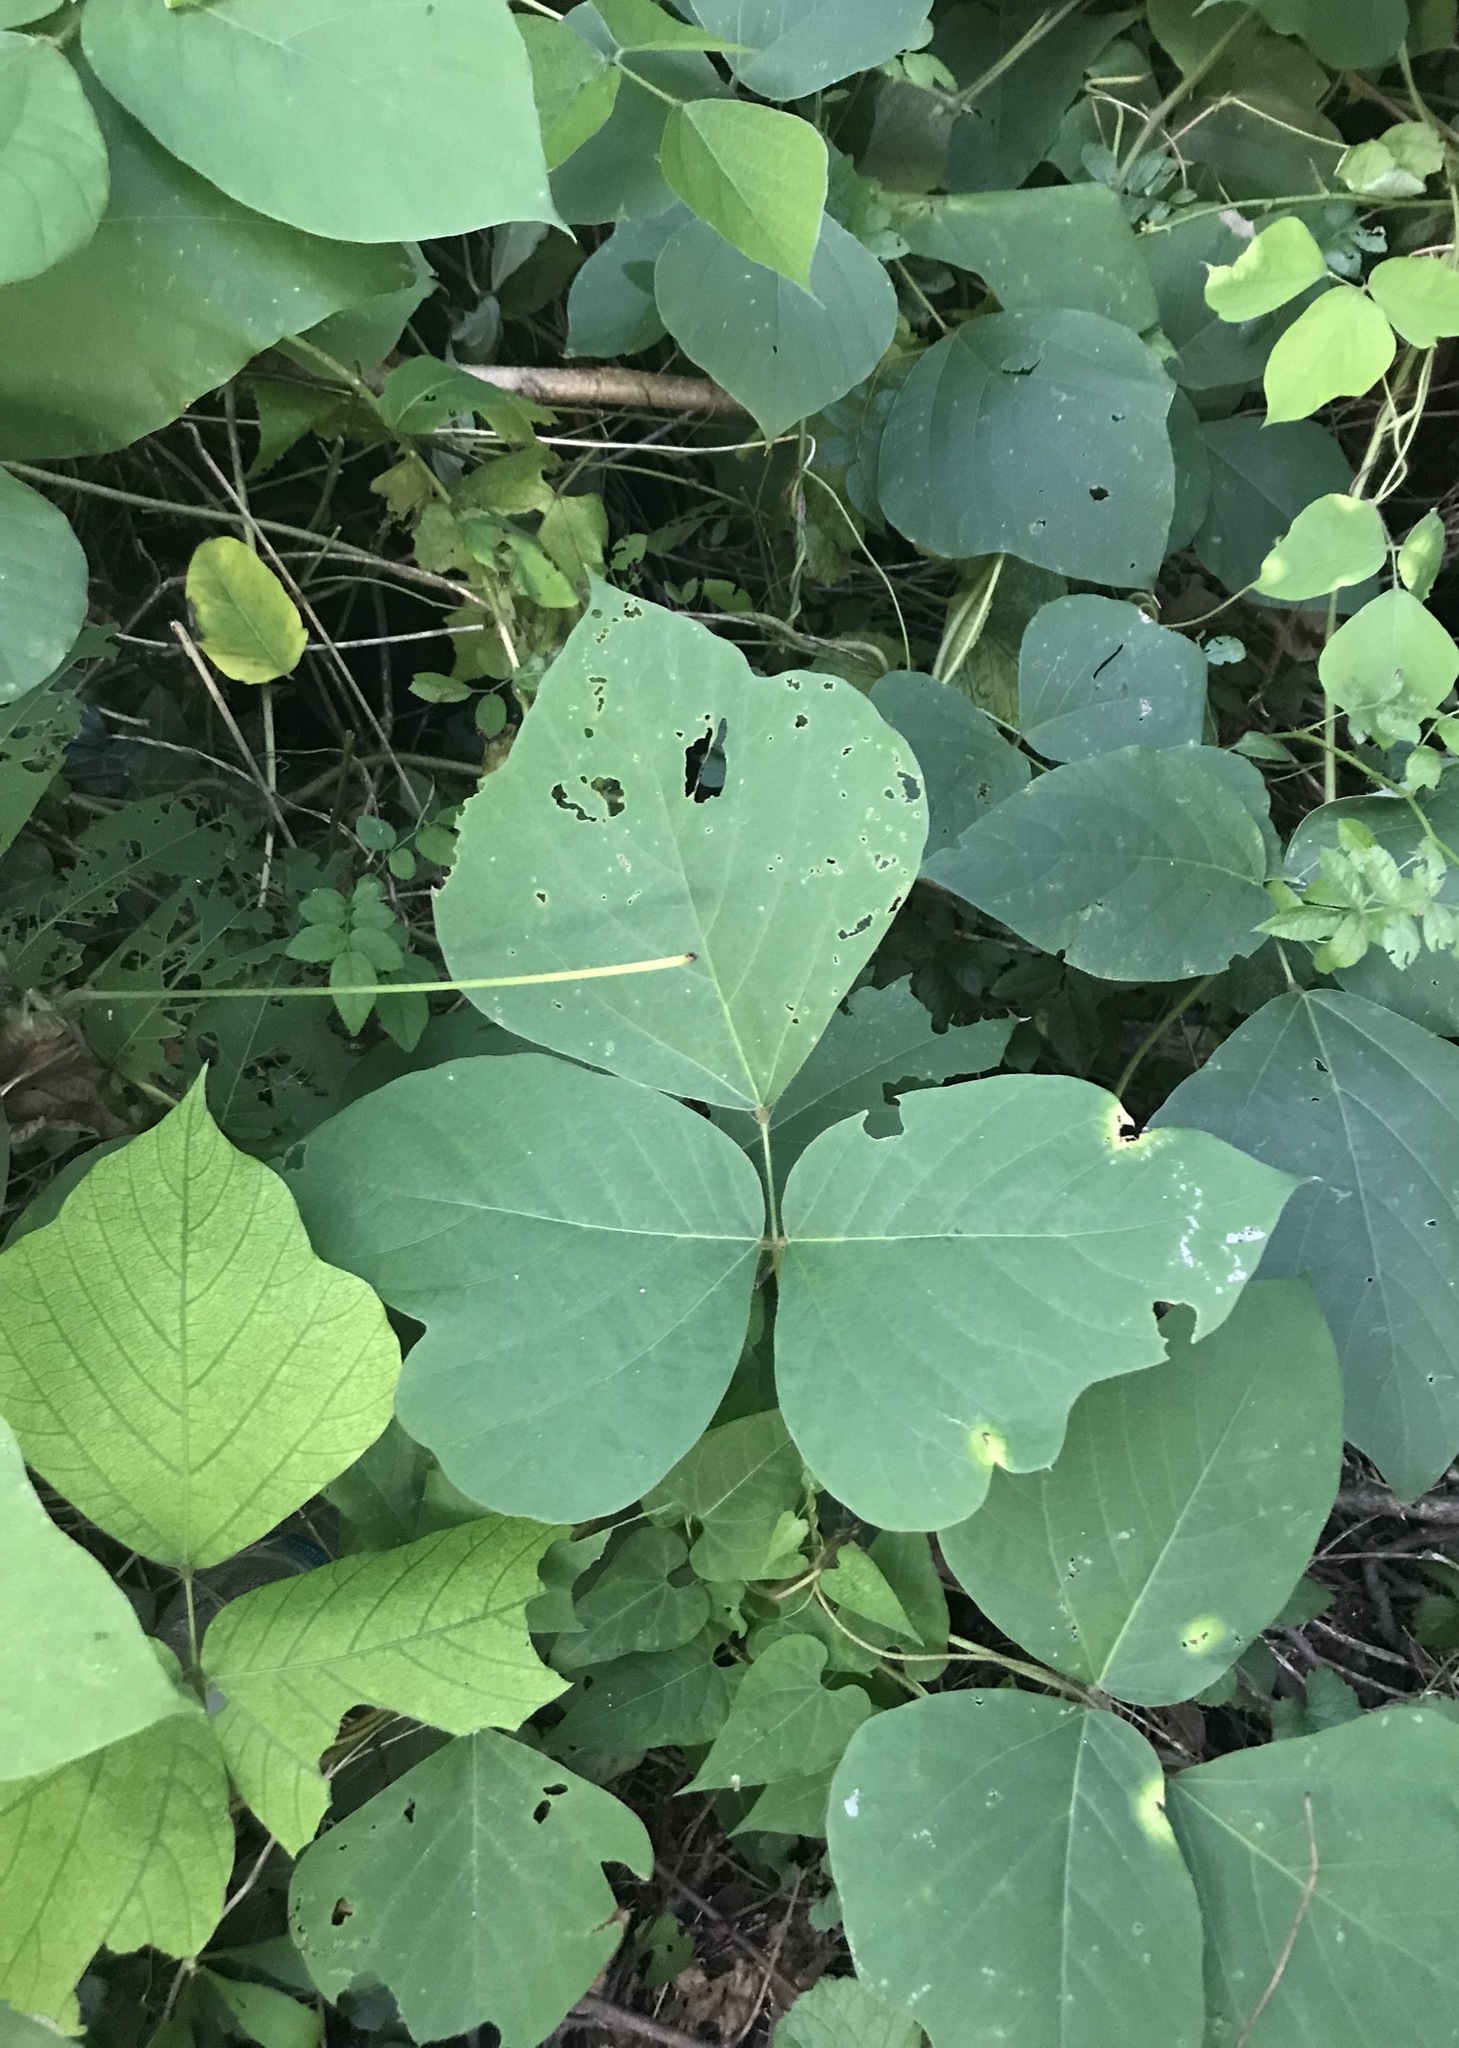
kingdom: Plantae
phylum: Tracheophyta
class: Magnoliopsida
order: Fabales
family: Fabaceae
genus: Pueraria
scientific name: Pueraria montana
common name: Kudzu
